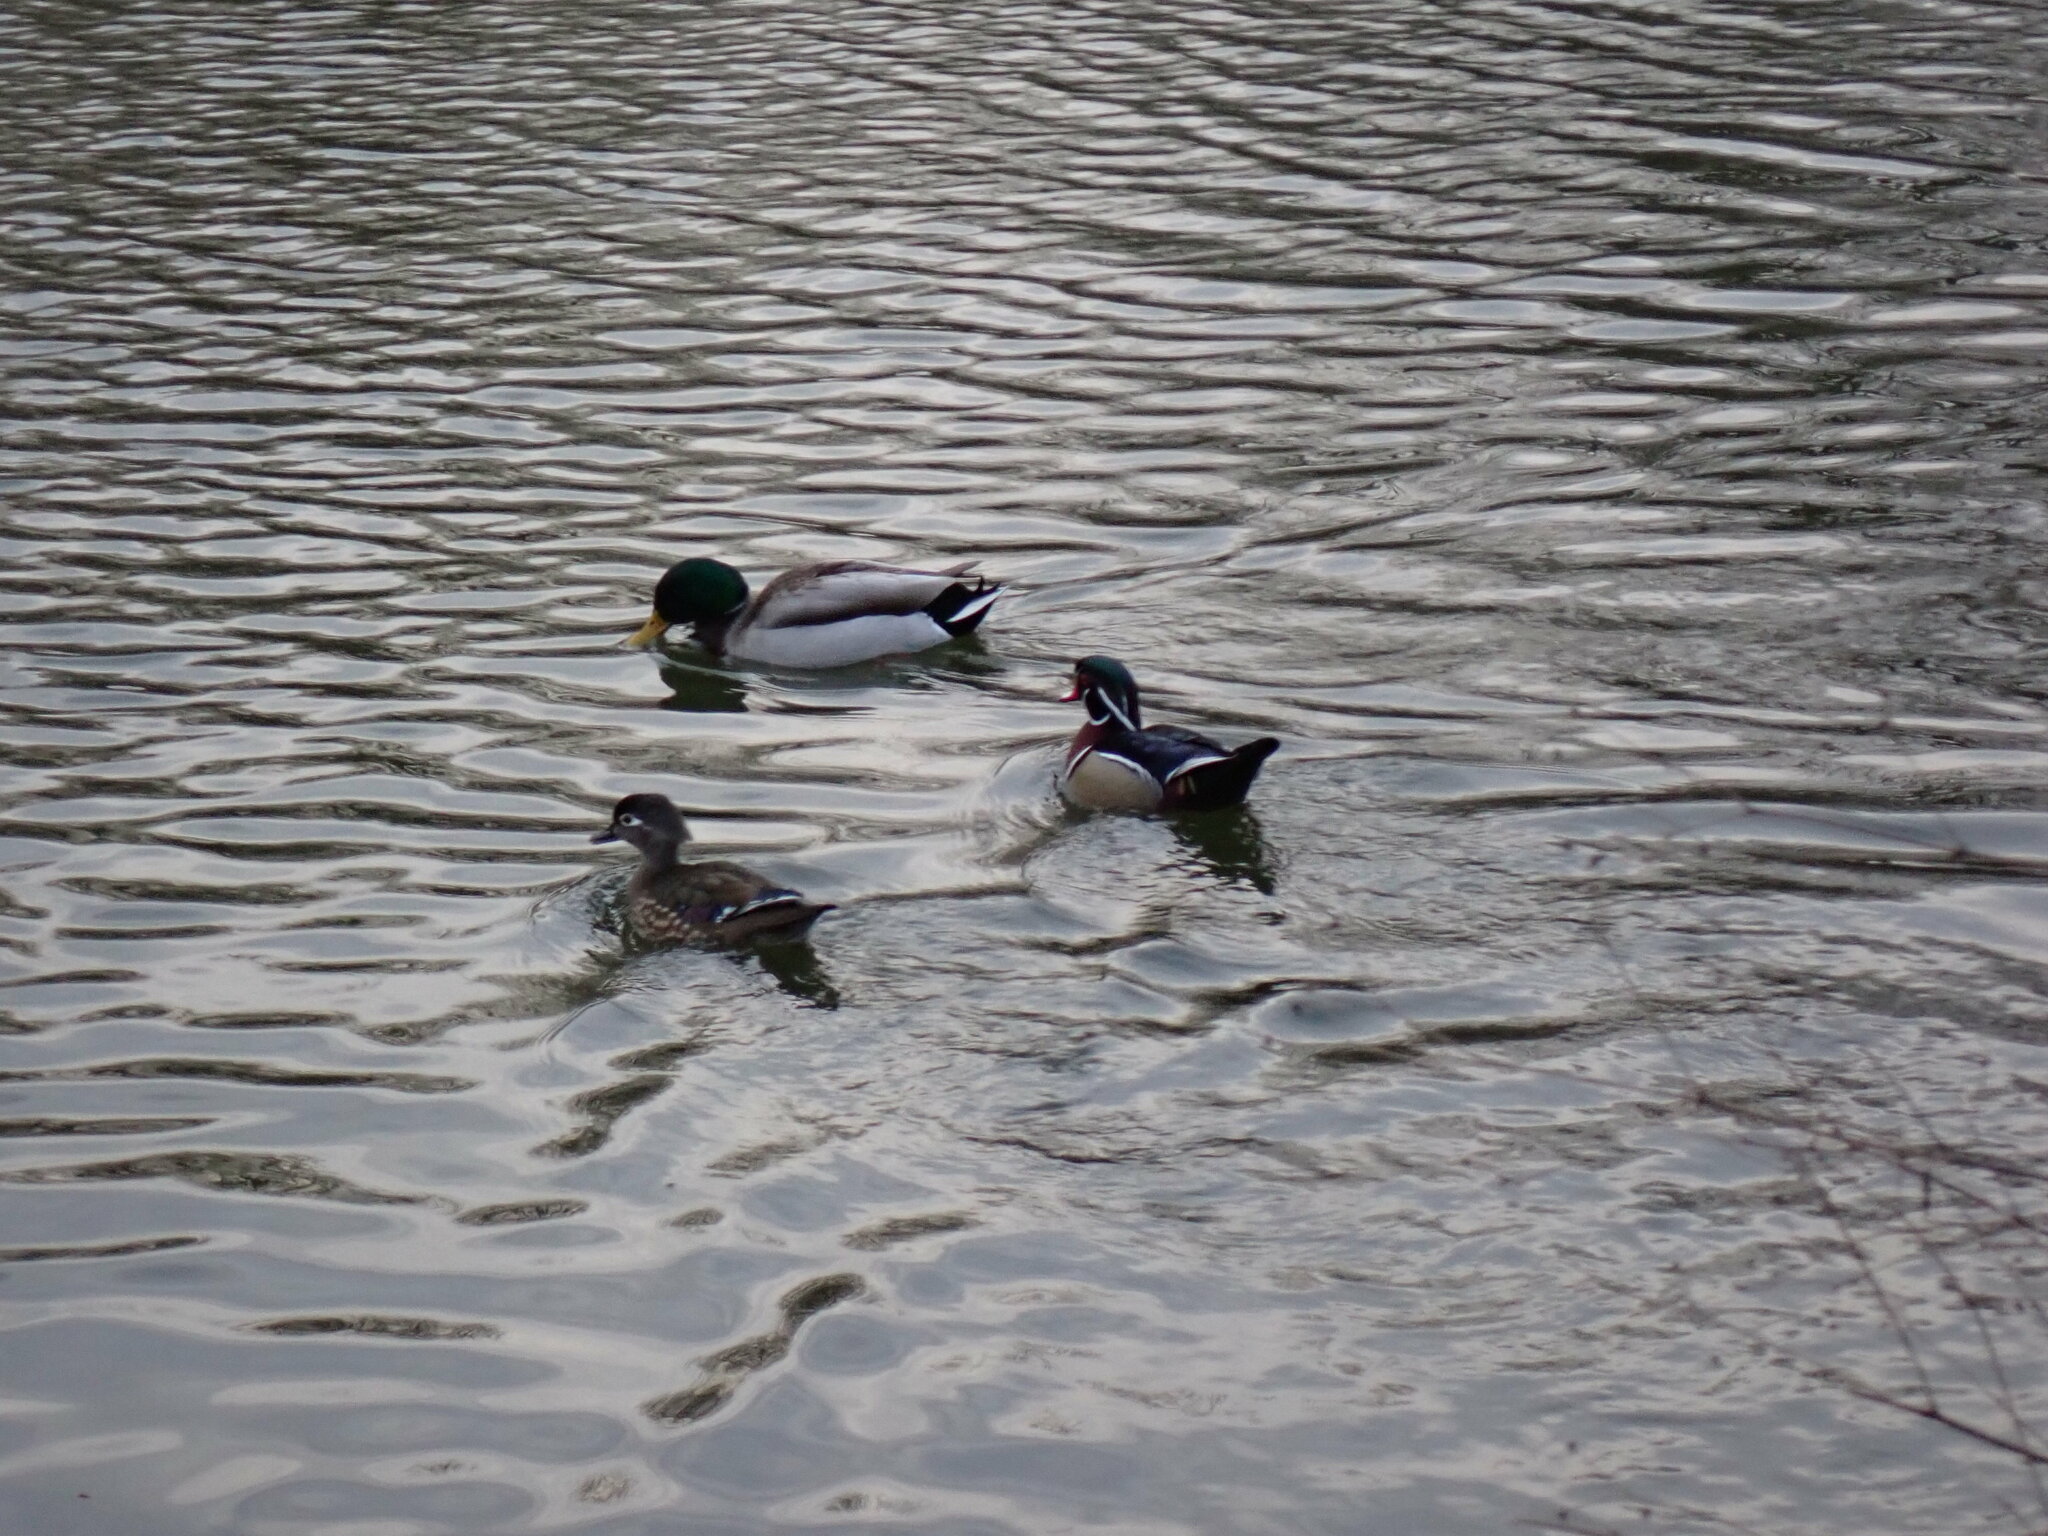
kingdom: Animalia
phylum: Chordata
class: Aves
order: Anseriformes
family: Anatidae
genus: Aix
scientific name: Aix sponsa
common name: Wood duck
